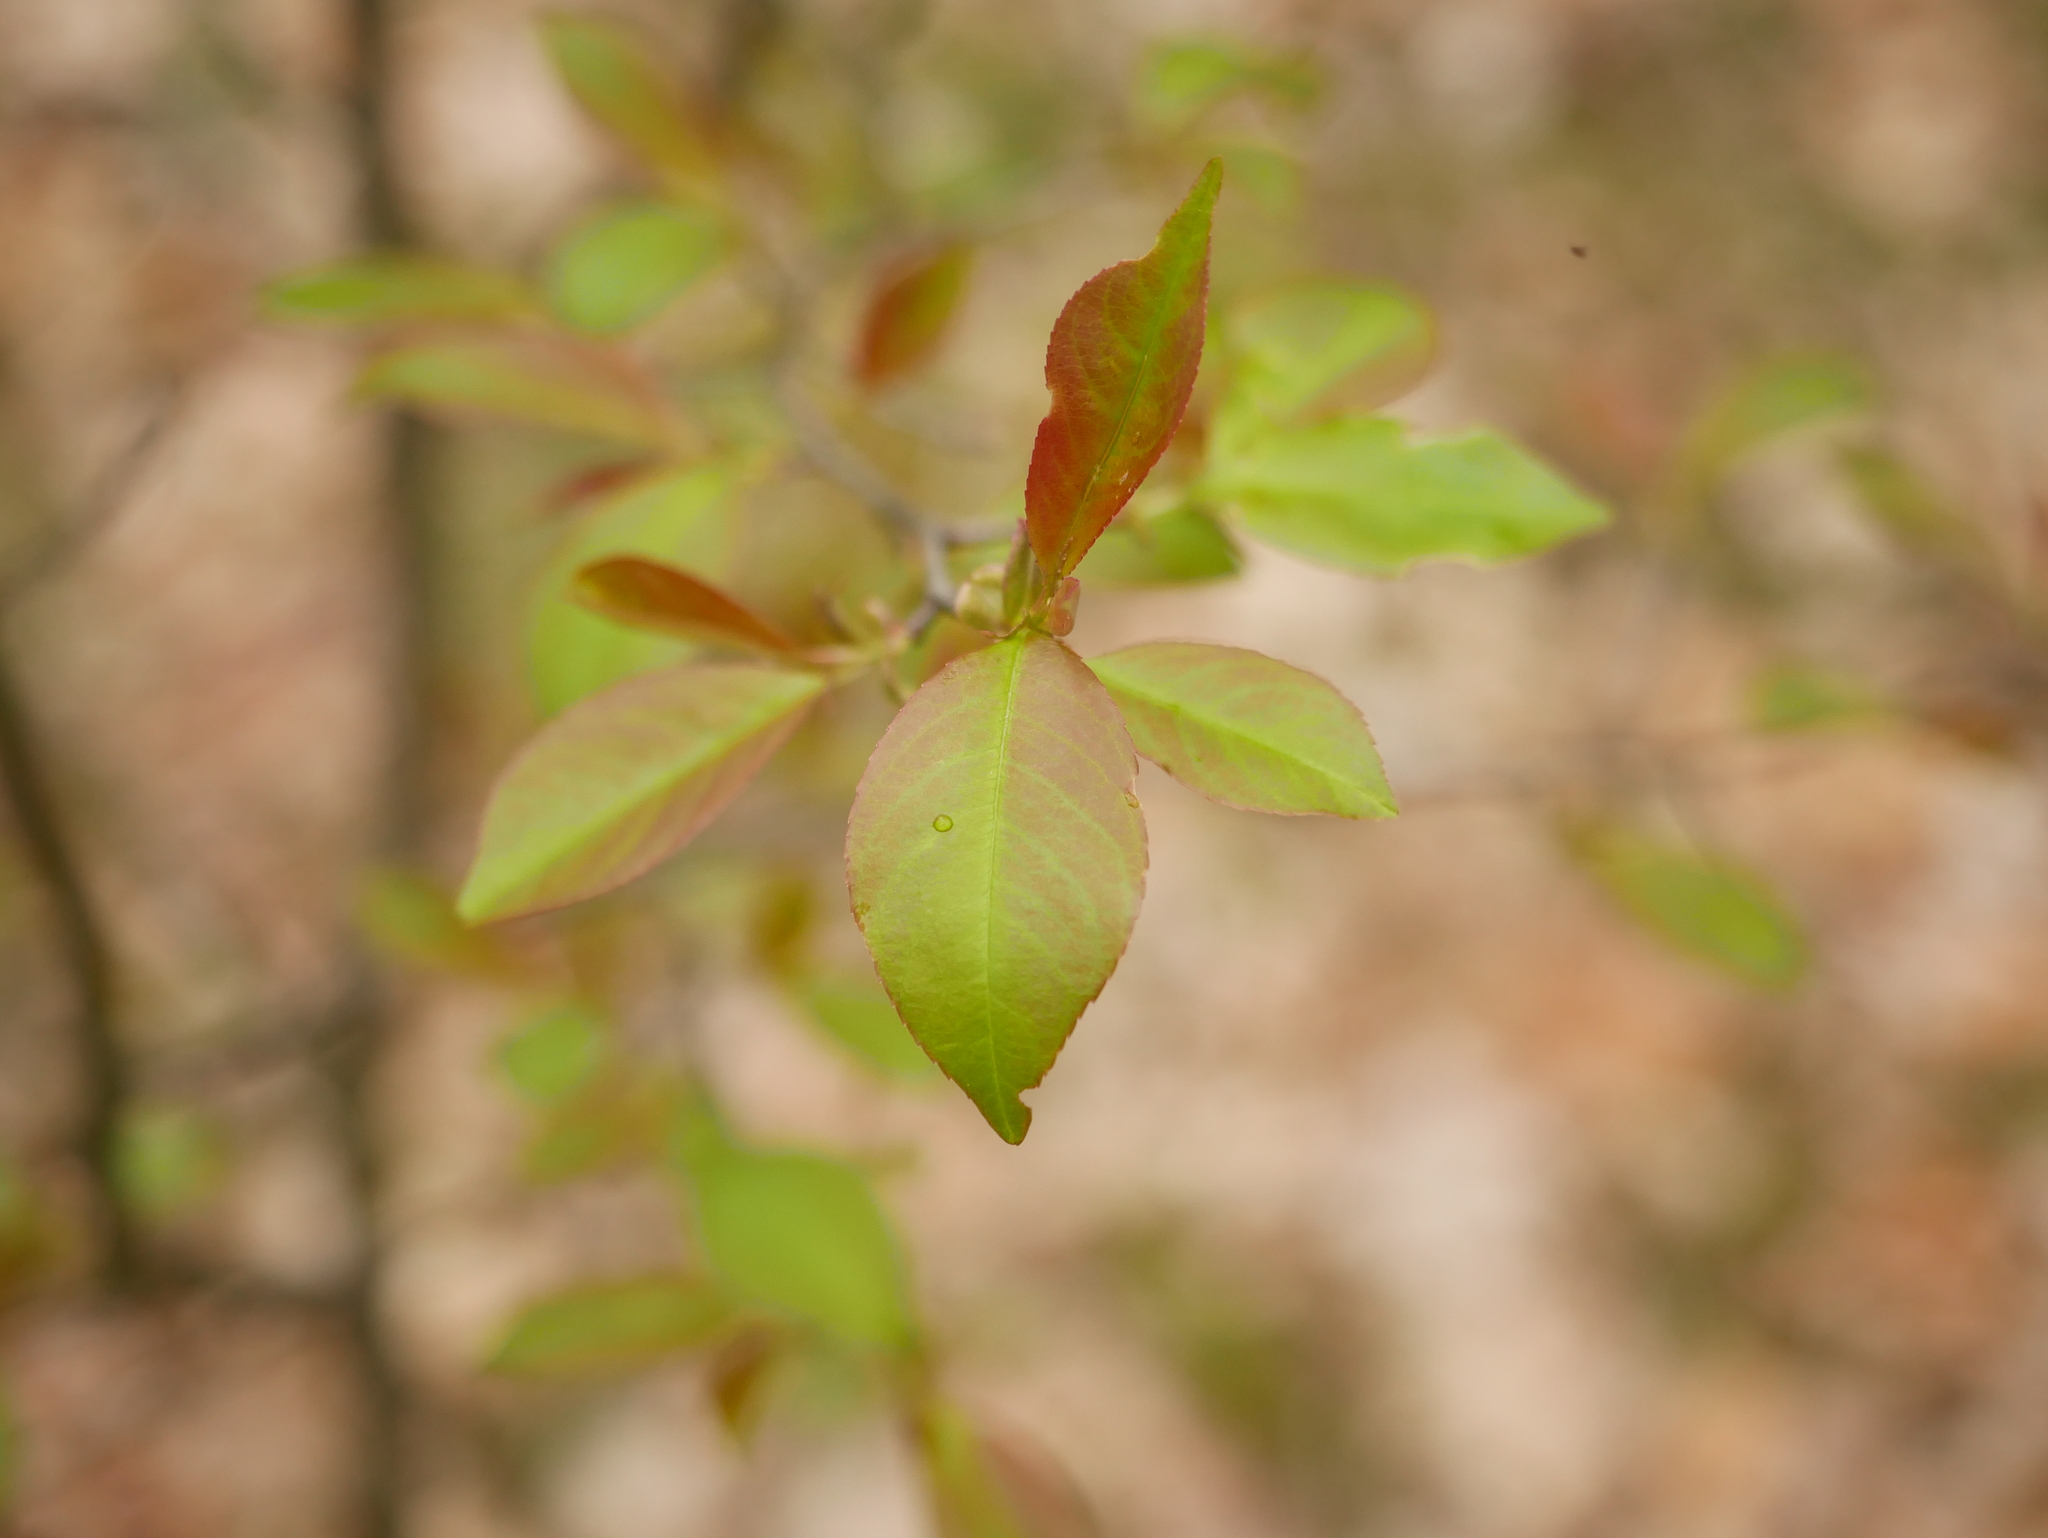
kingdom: Plantae
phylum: Tracheophyta
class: Magnoliopsida
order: Rosales
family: Rosaceae
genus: Prunus
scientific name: Prunus serotina
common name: Black cherry
